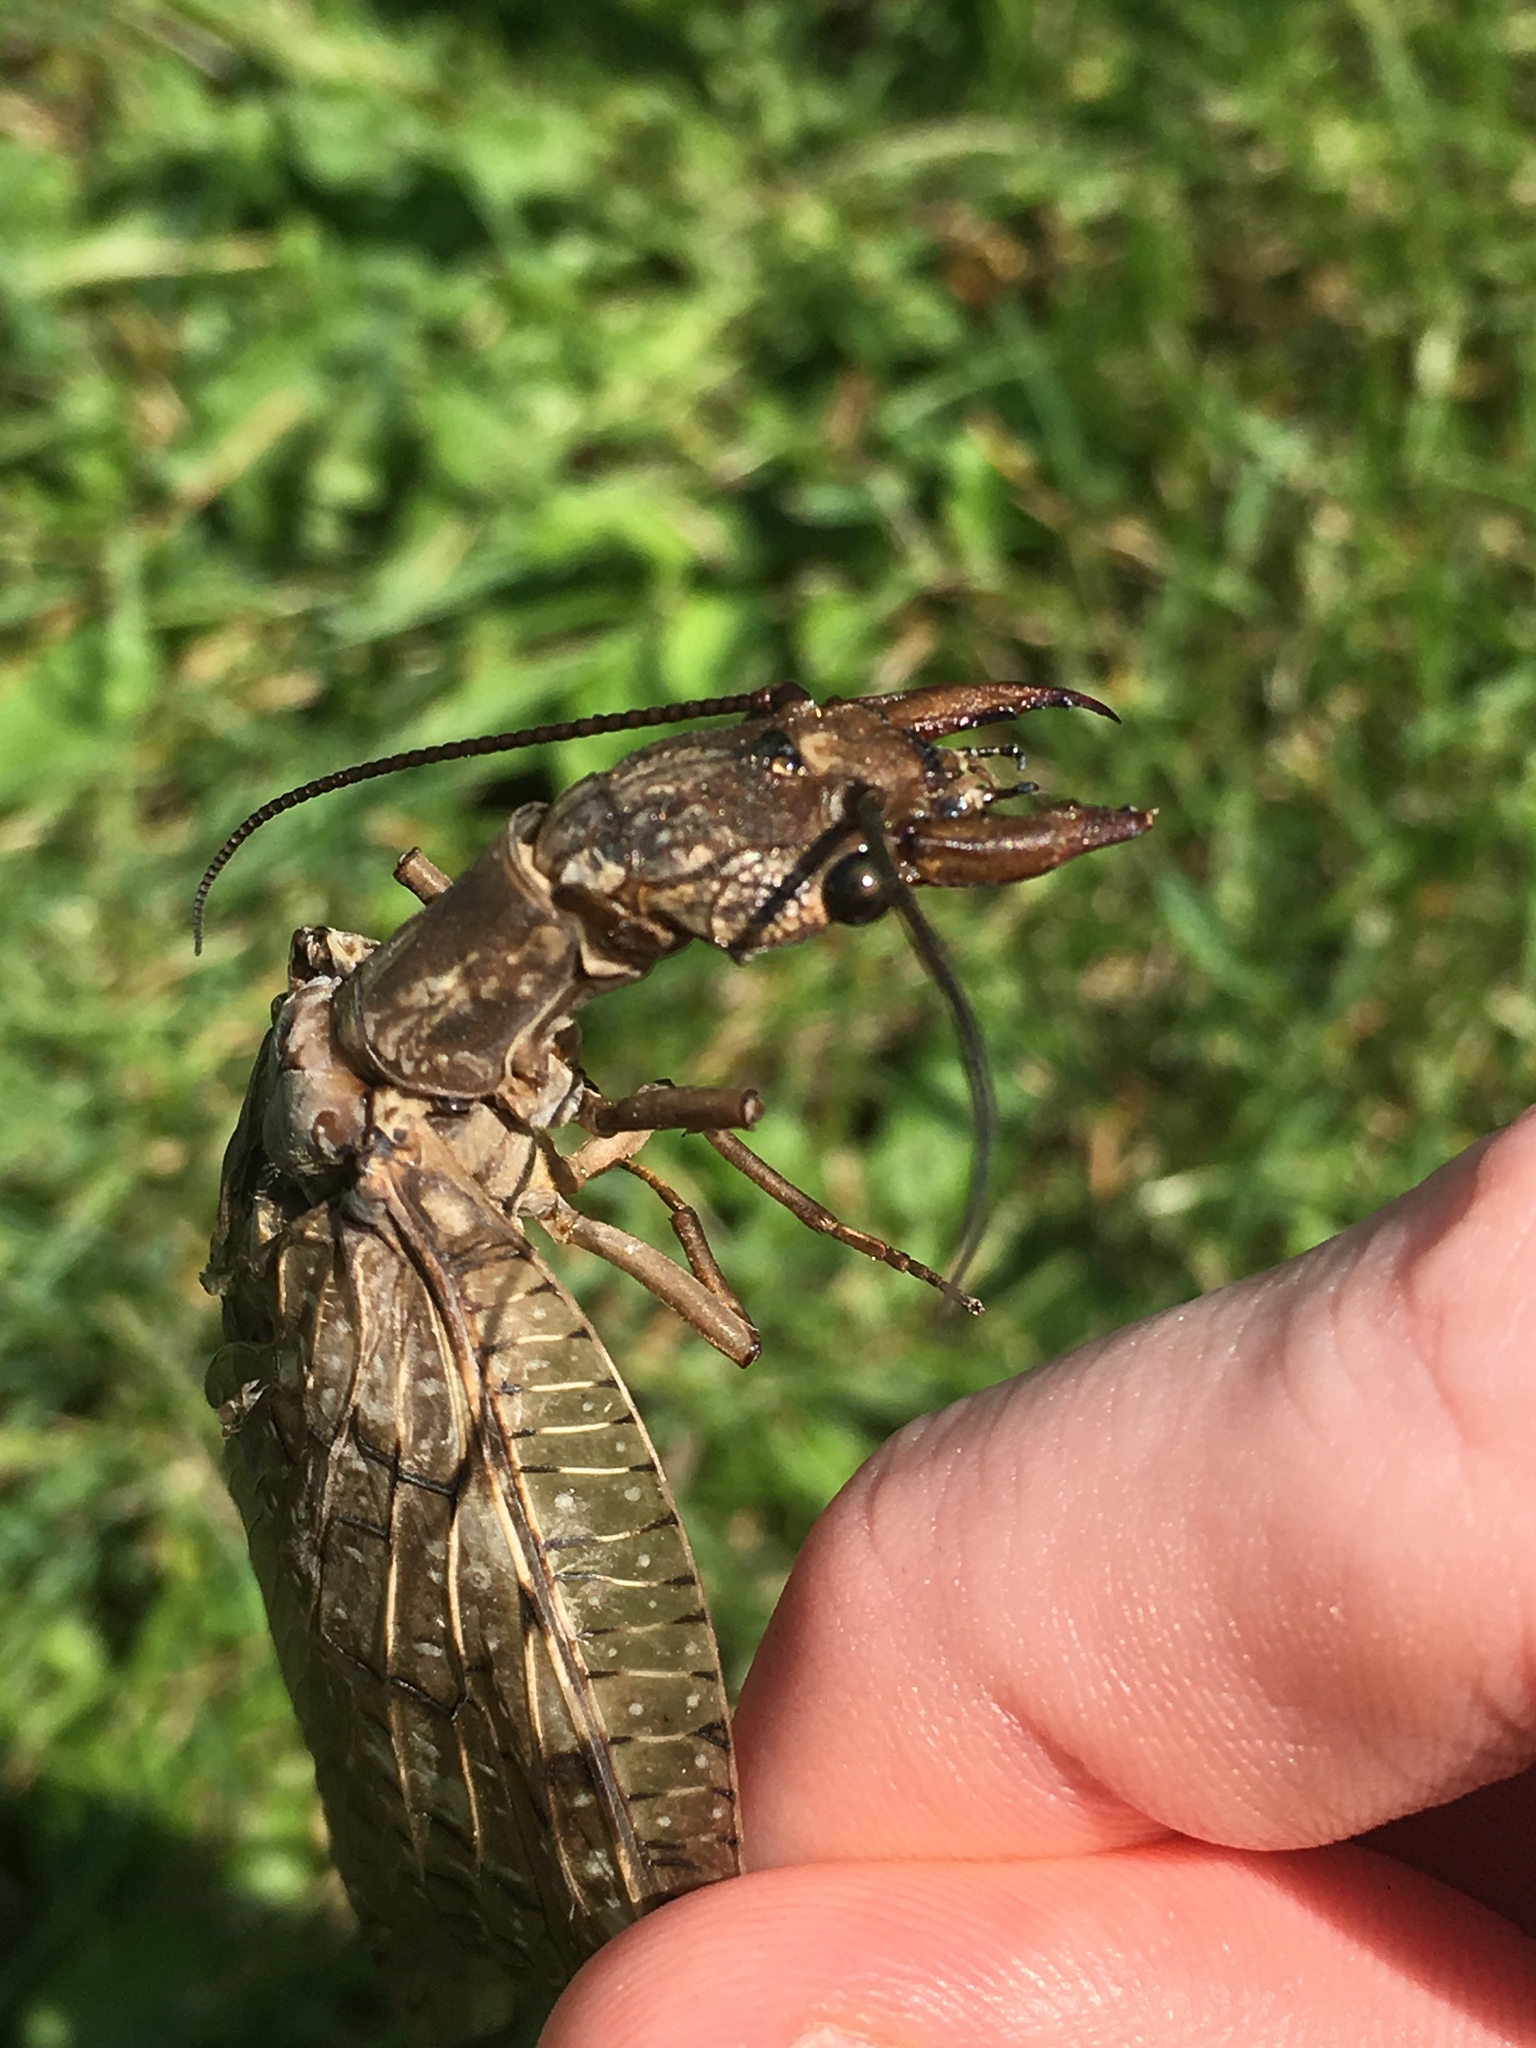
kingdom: Animalia
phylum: Arthropoda
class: Insecta
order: Megaloptera
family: Corydalidae
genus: Corydalus
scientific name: Corydalus cornutus
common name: Dobsonfly
